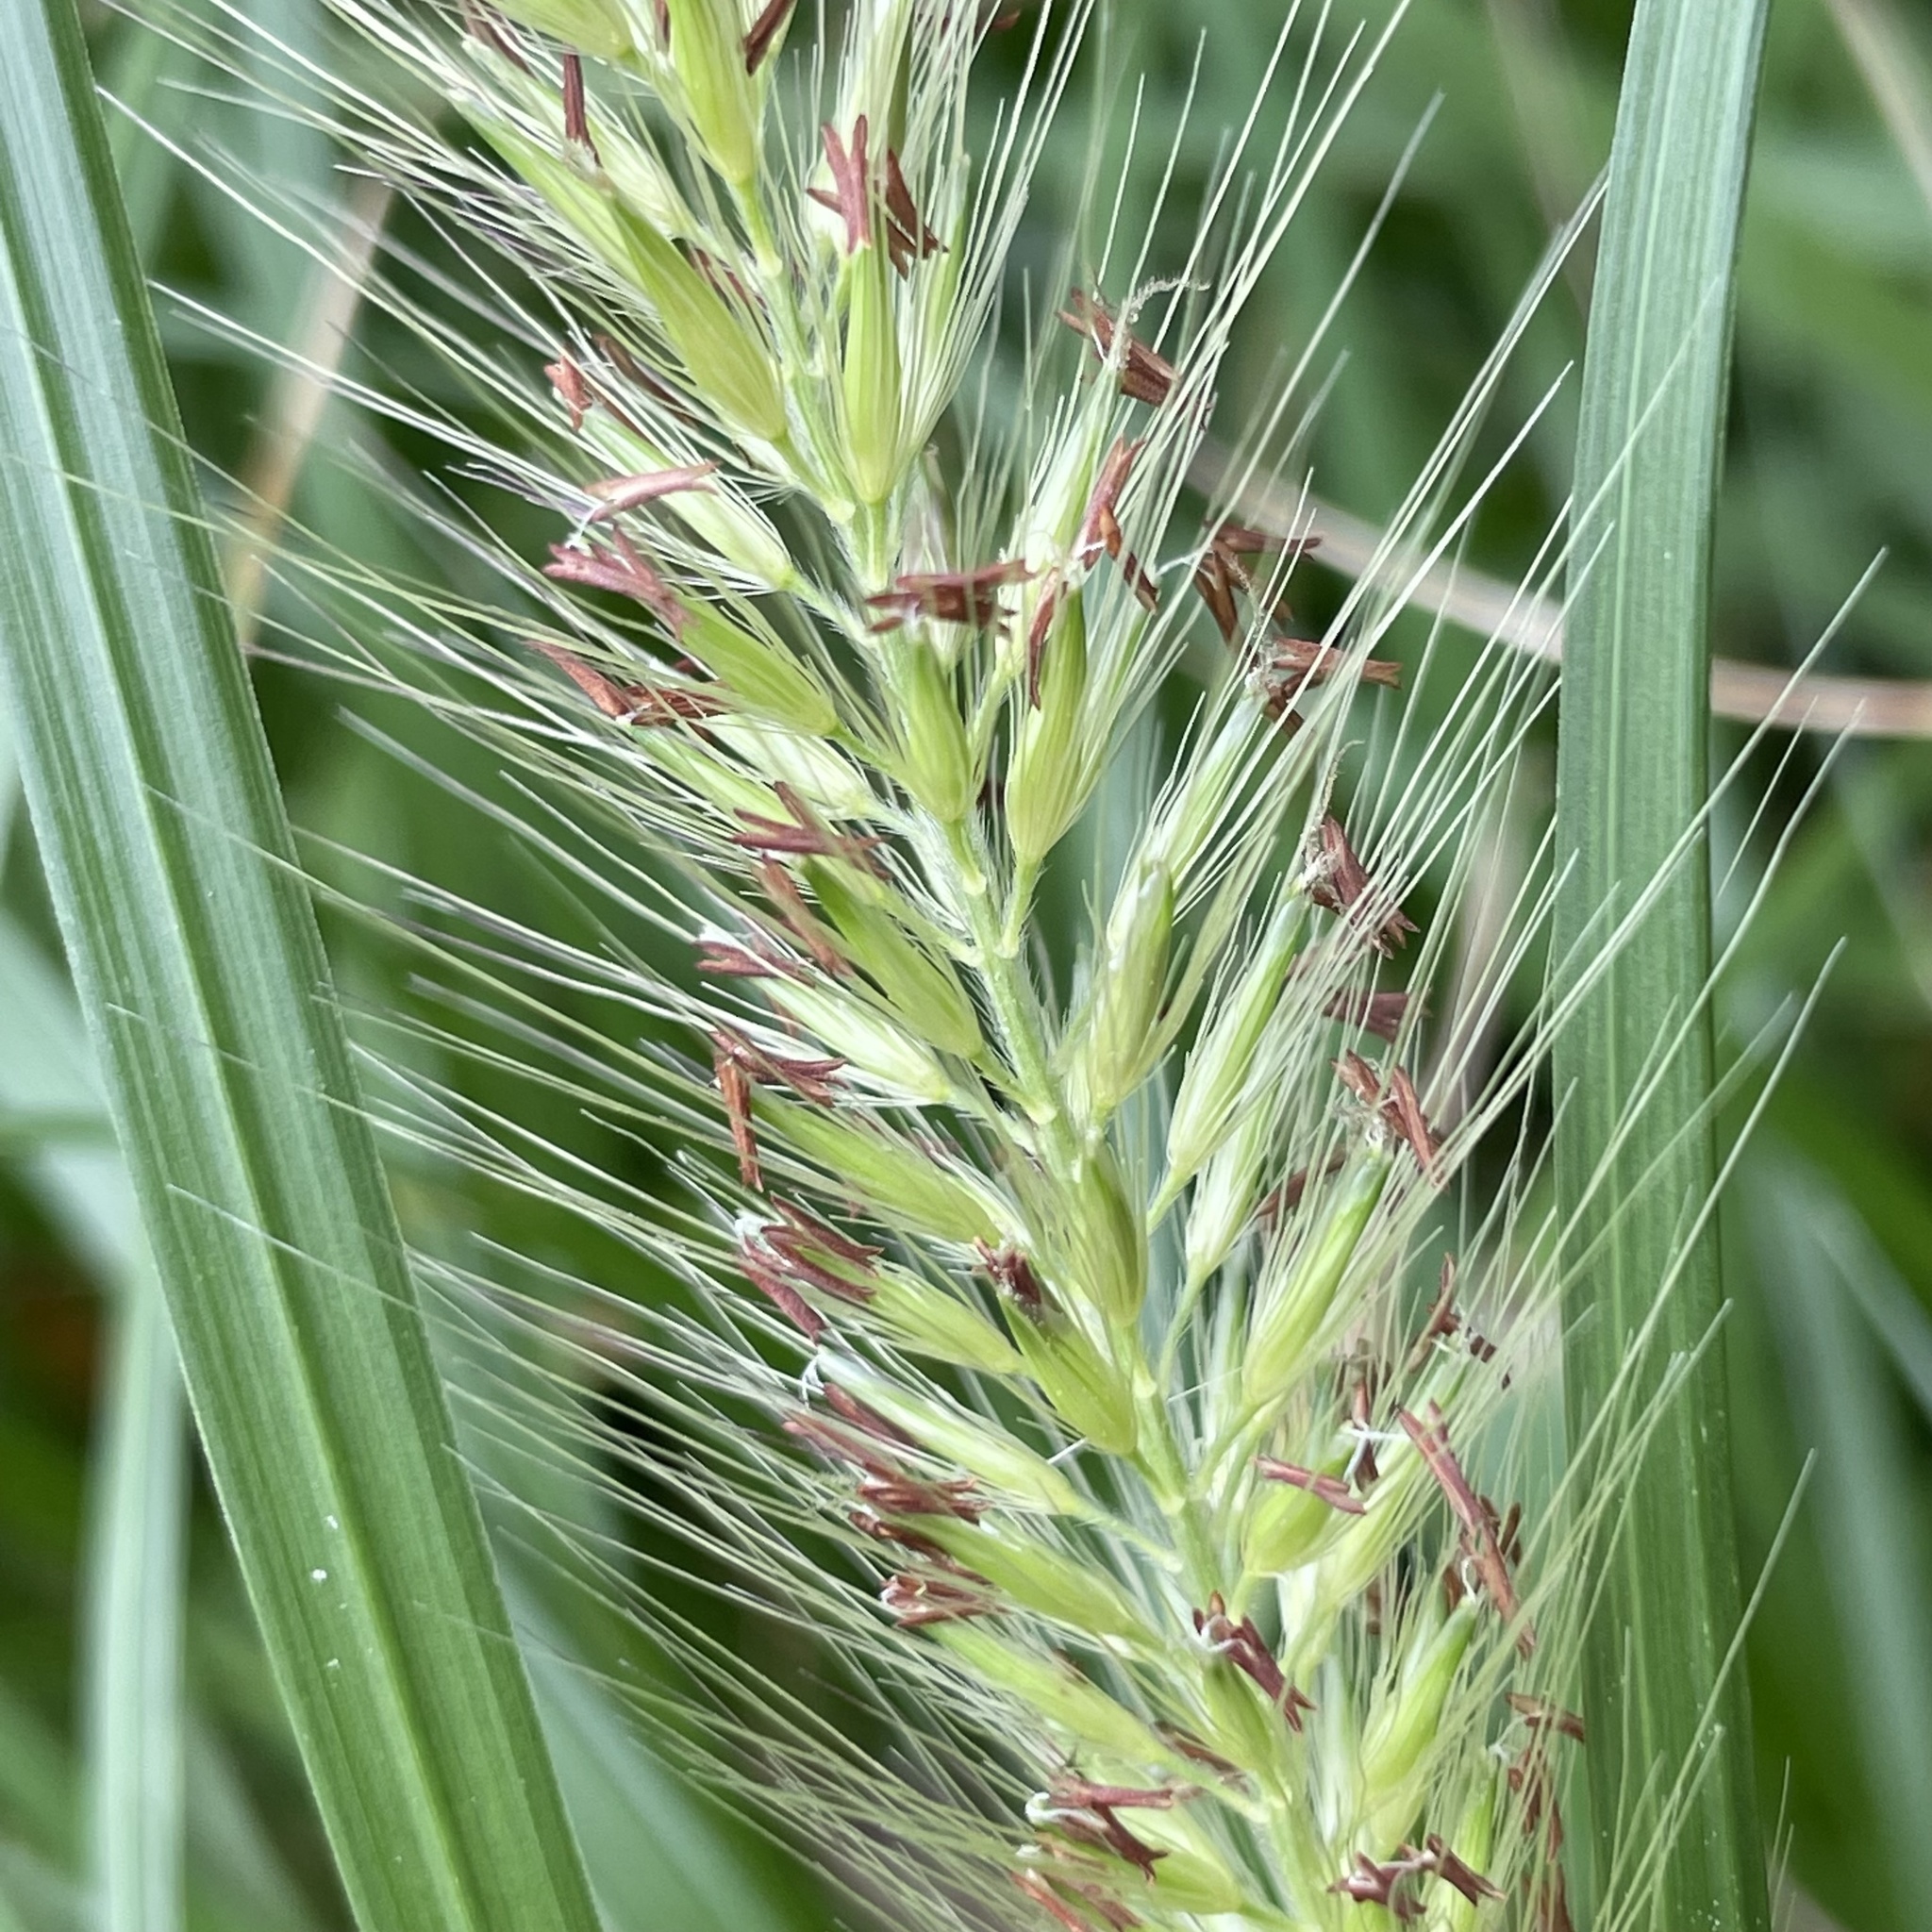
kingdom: Plantae
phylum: Tracheophyta
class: Liliopsida
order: Poales
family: Poaceae
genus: Cenchrus
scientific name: Cenchrus alopecuroides
